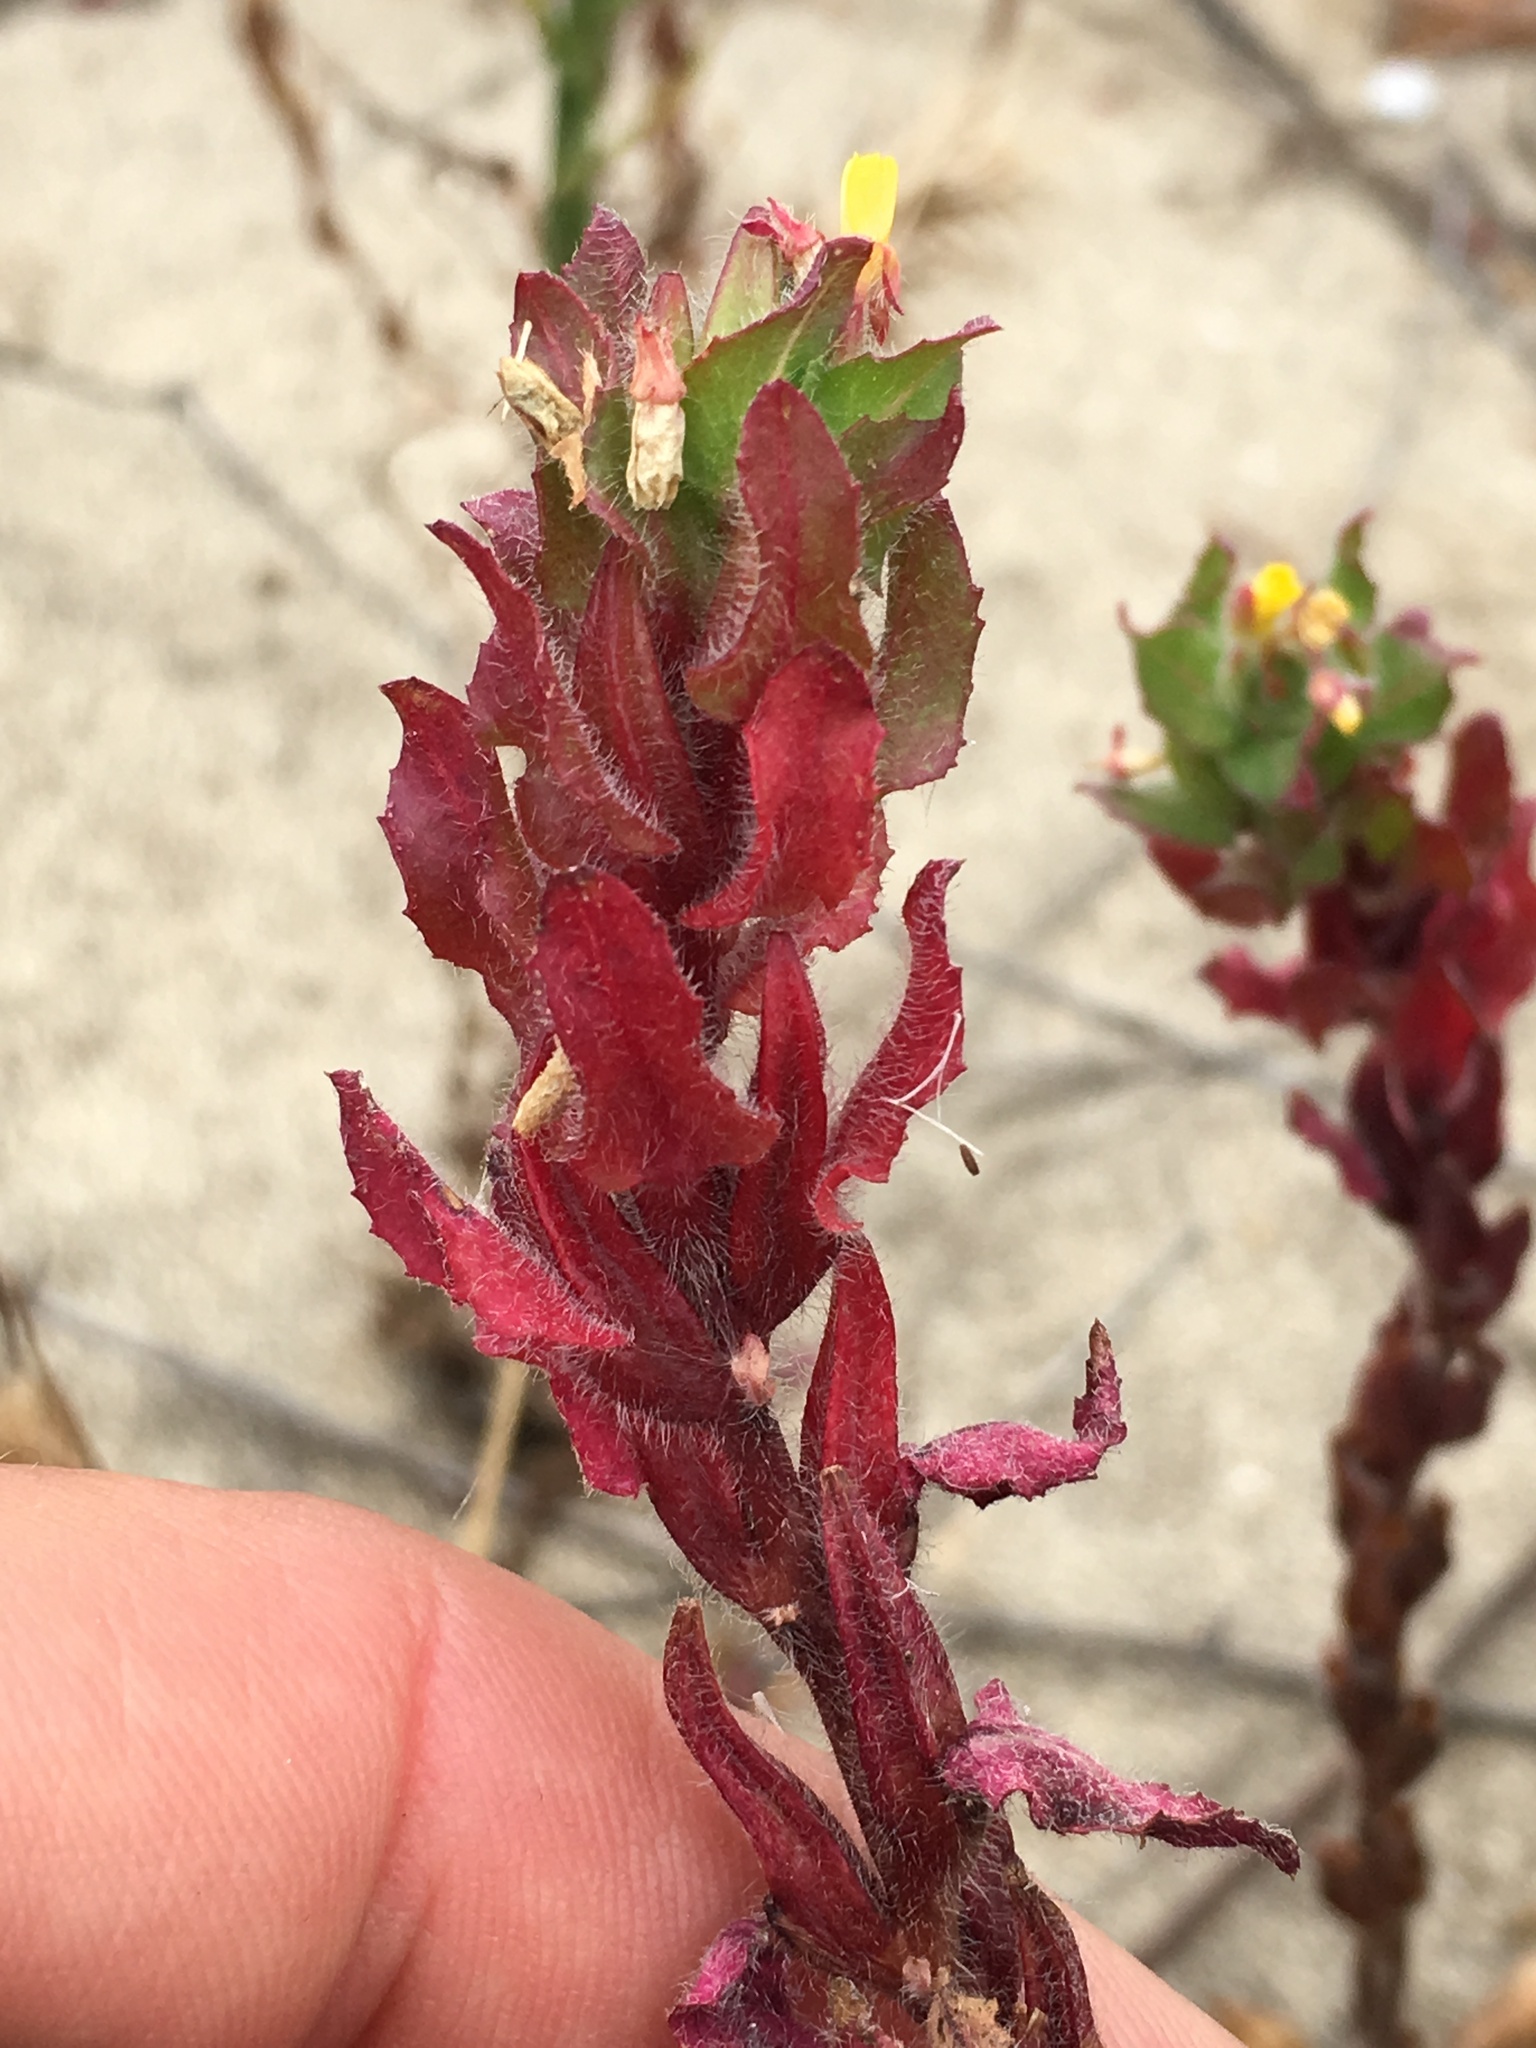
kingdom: Plantae
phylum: Tracheophyta
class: Magnoliopsida
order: Myrtales
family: Onagraceae
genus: Camissoniopsis
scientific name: Camissoniopsis guadalupensis
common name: Guadalupe suncup
